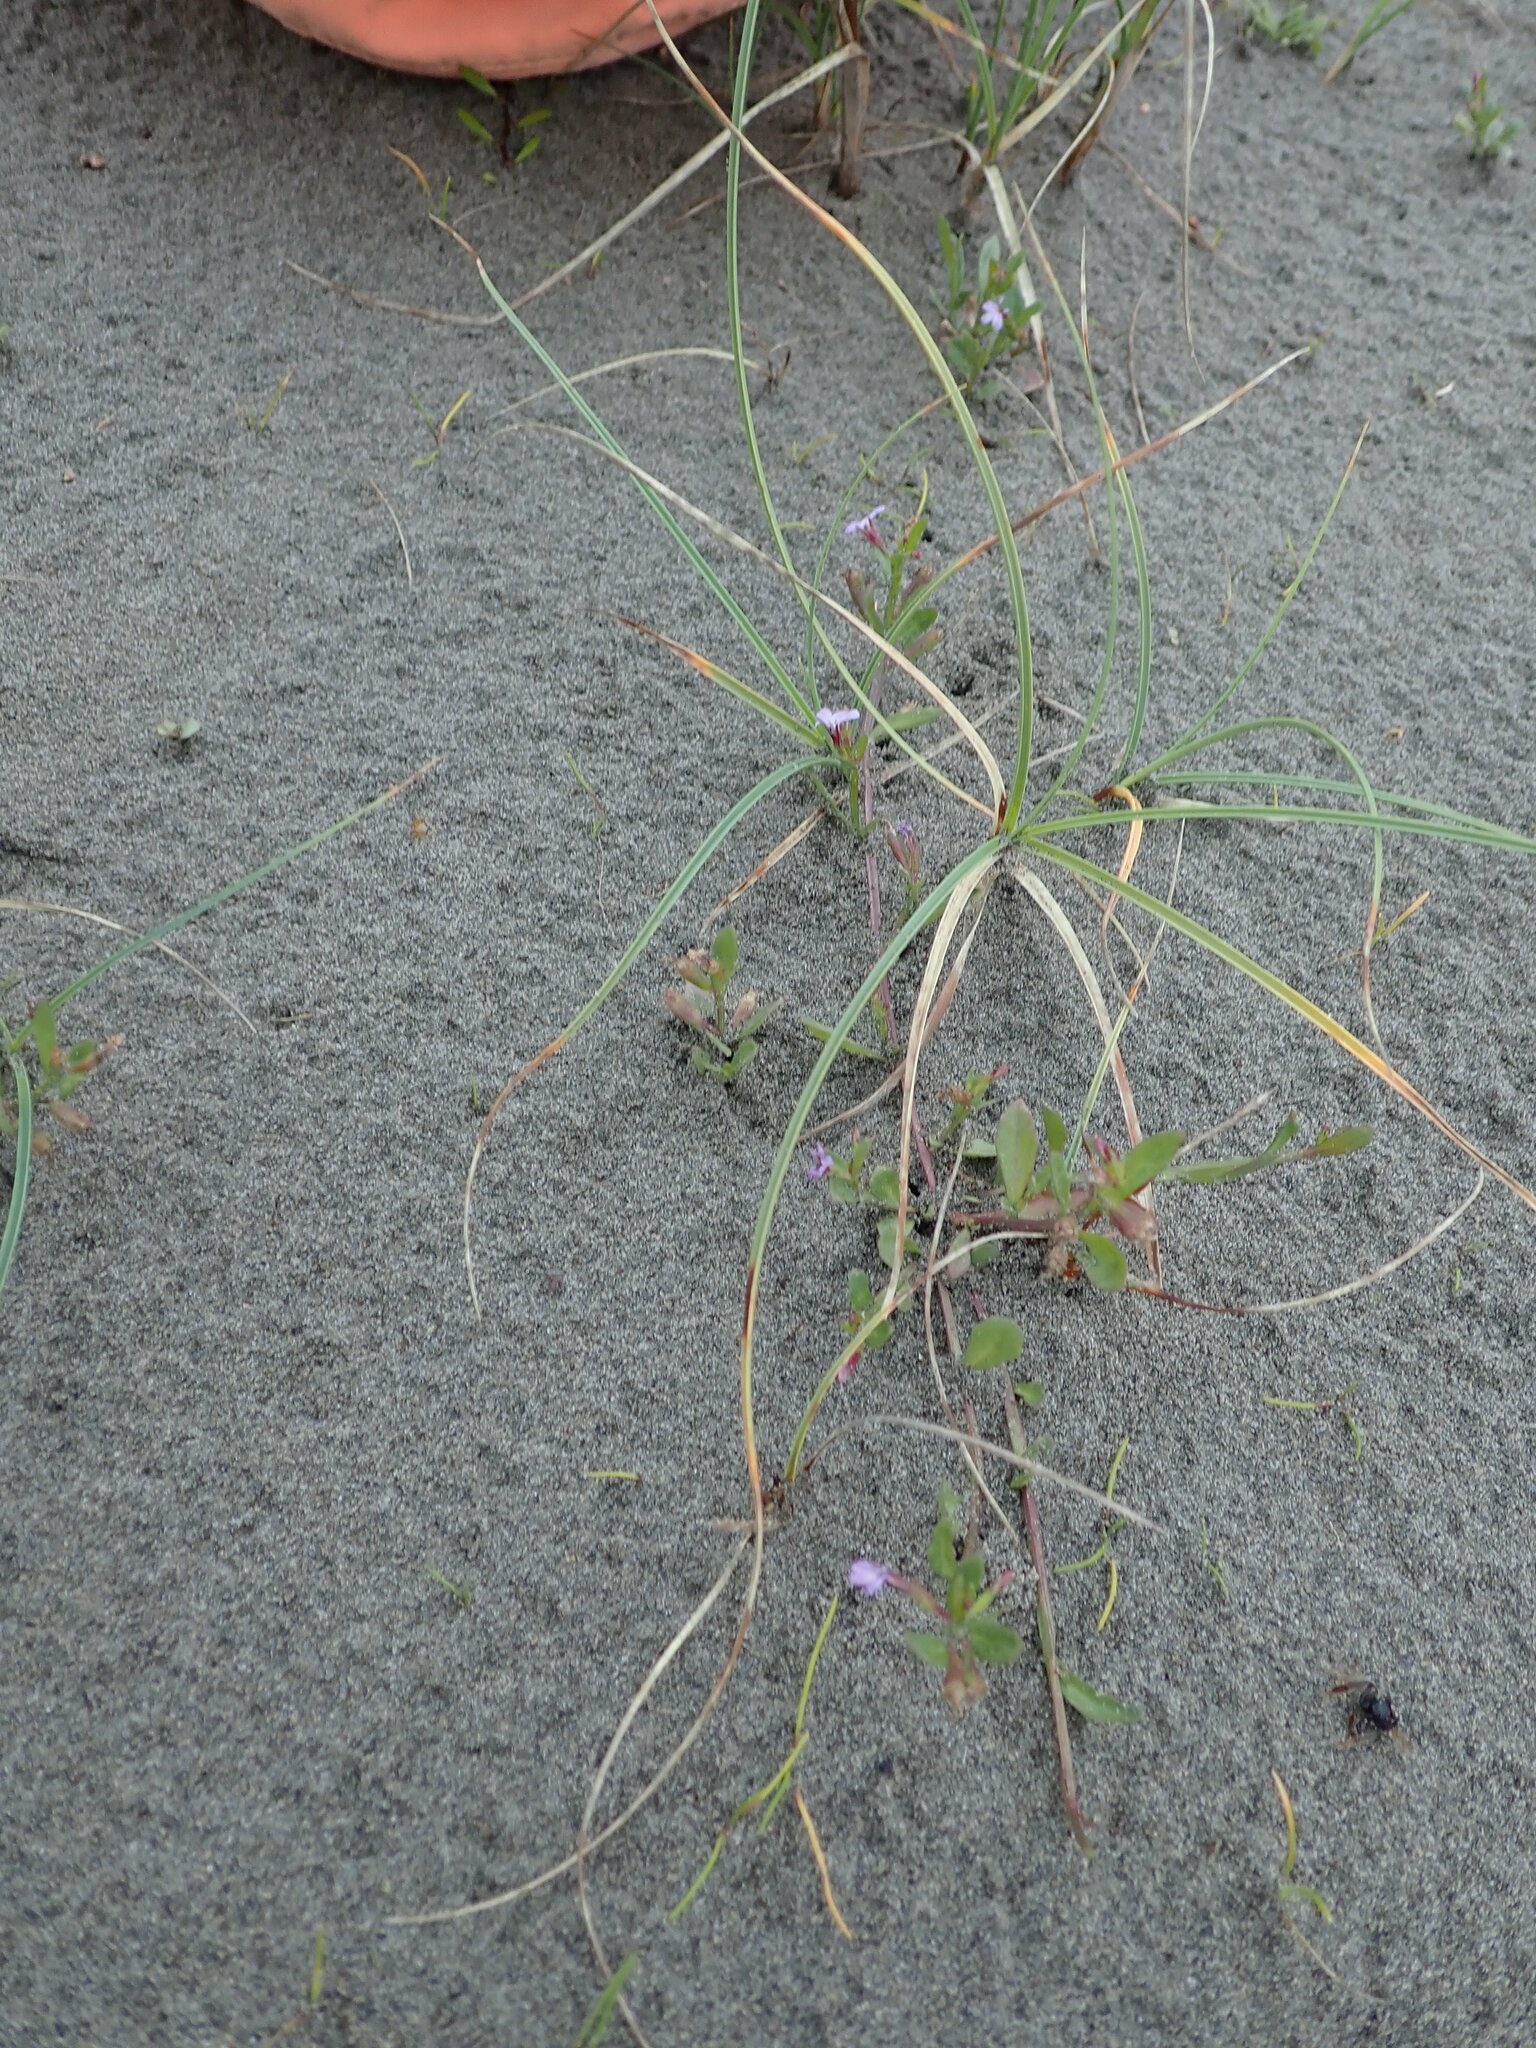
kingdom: Plantae
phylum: Tracheophyta
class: Magnoliopsida
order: Asterales
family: Campanulaceae
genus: Lobelia
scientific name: Lobelia anceps
